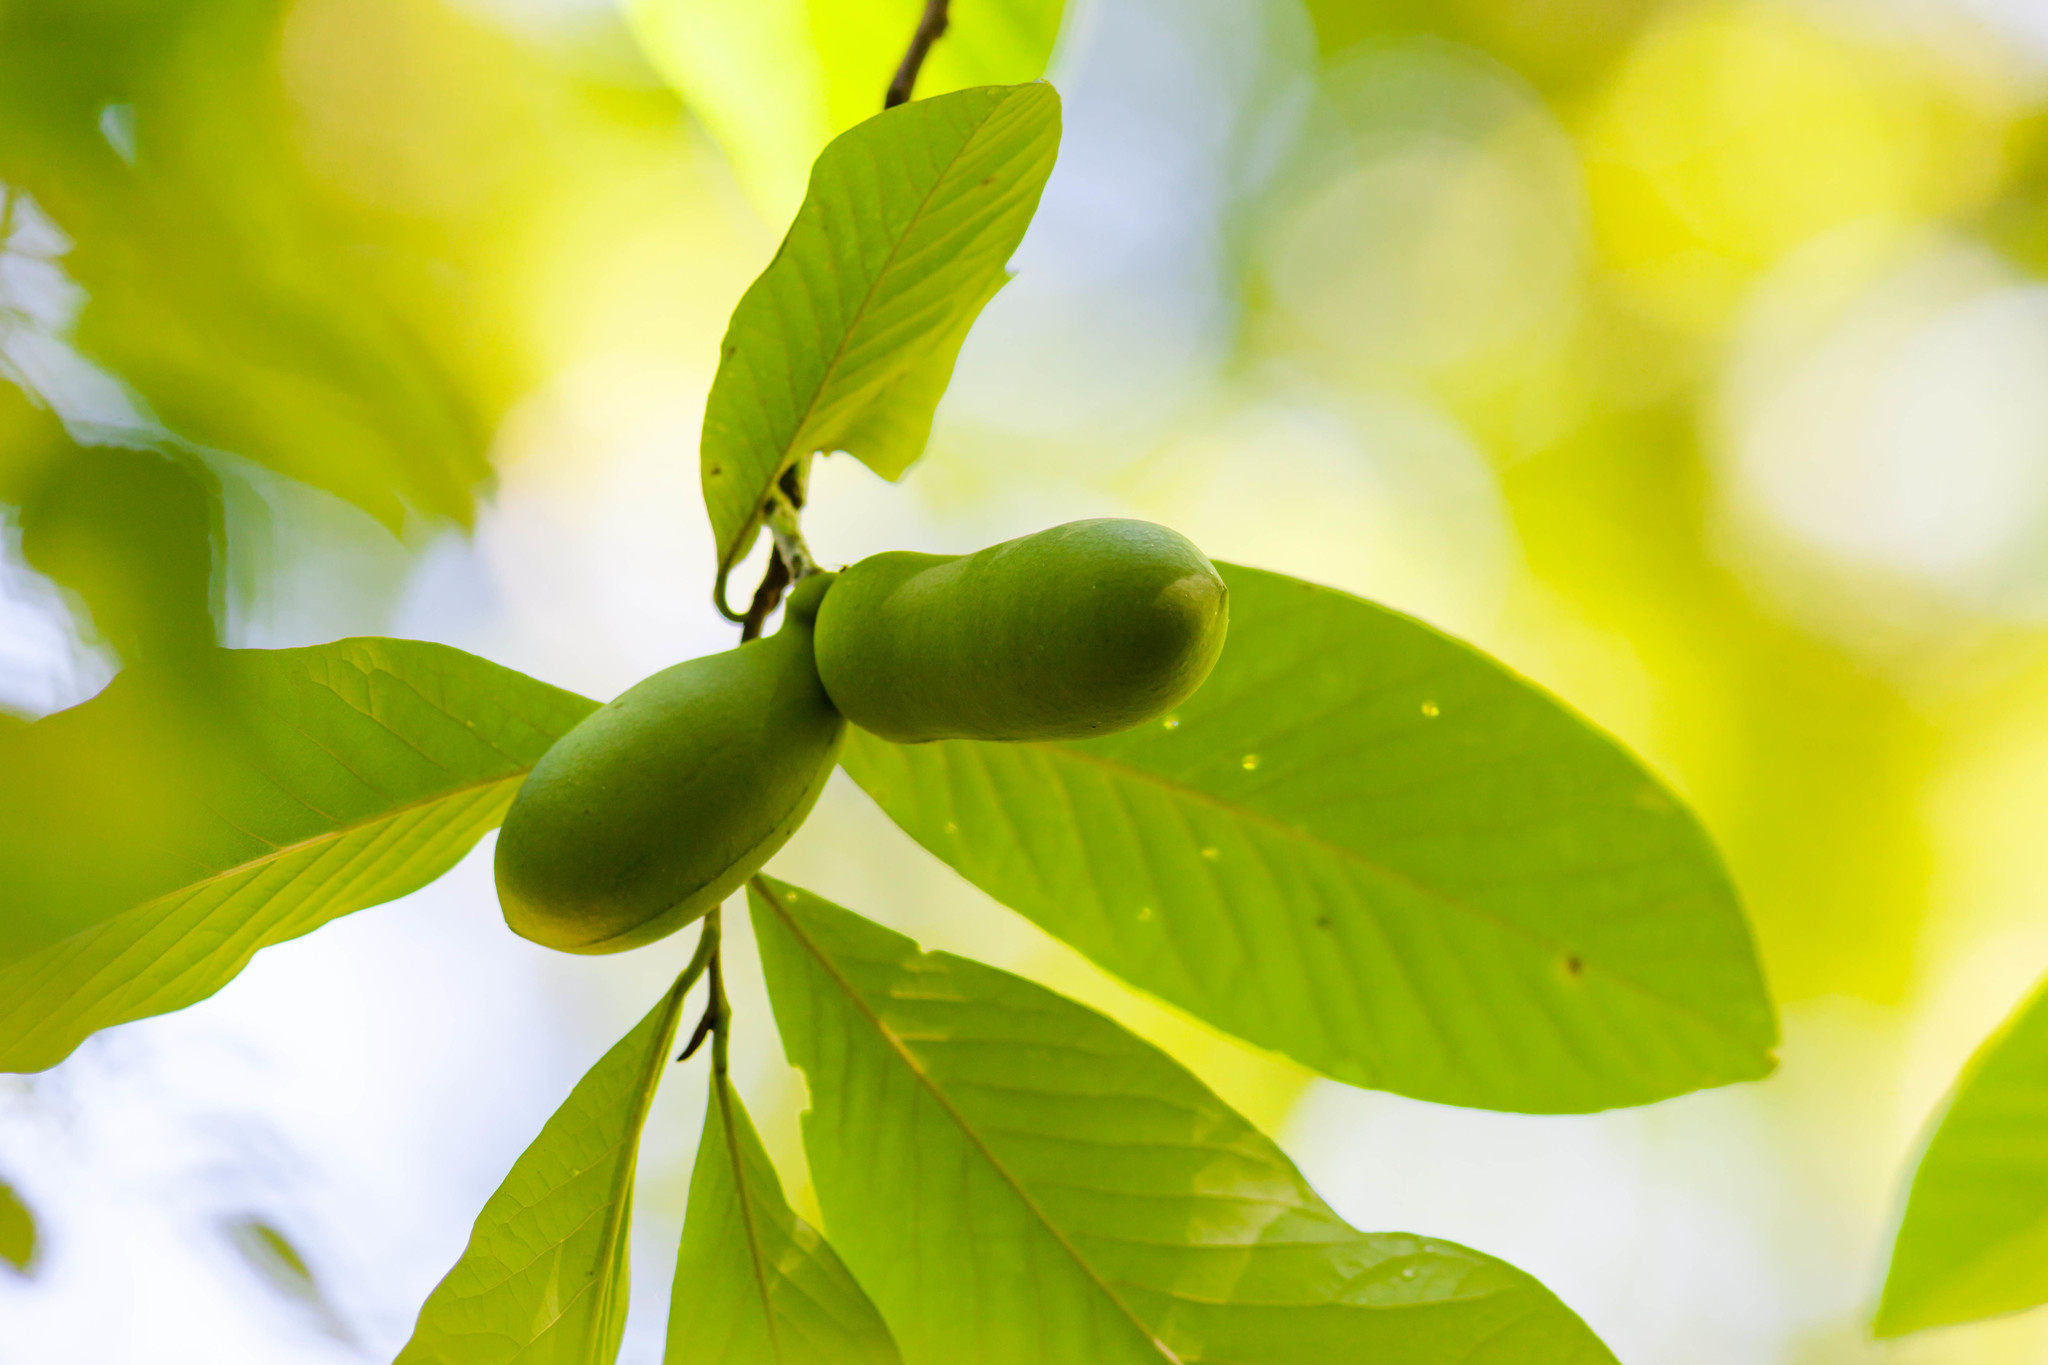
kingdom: Plantae
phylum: Tracheophyta
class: Magnoliopsida
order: Magnoliales
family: Annonaceae
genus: Asimina
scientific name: Asimina triloba
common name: Dog-banana
